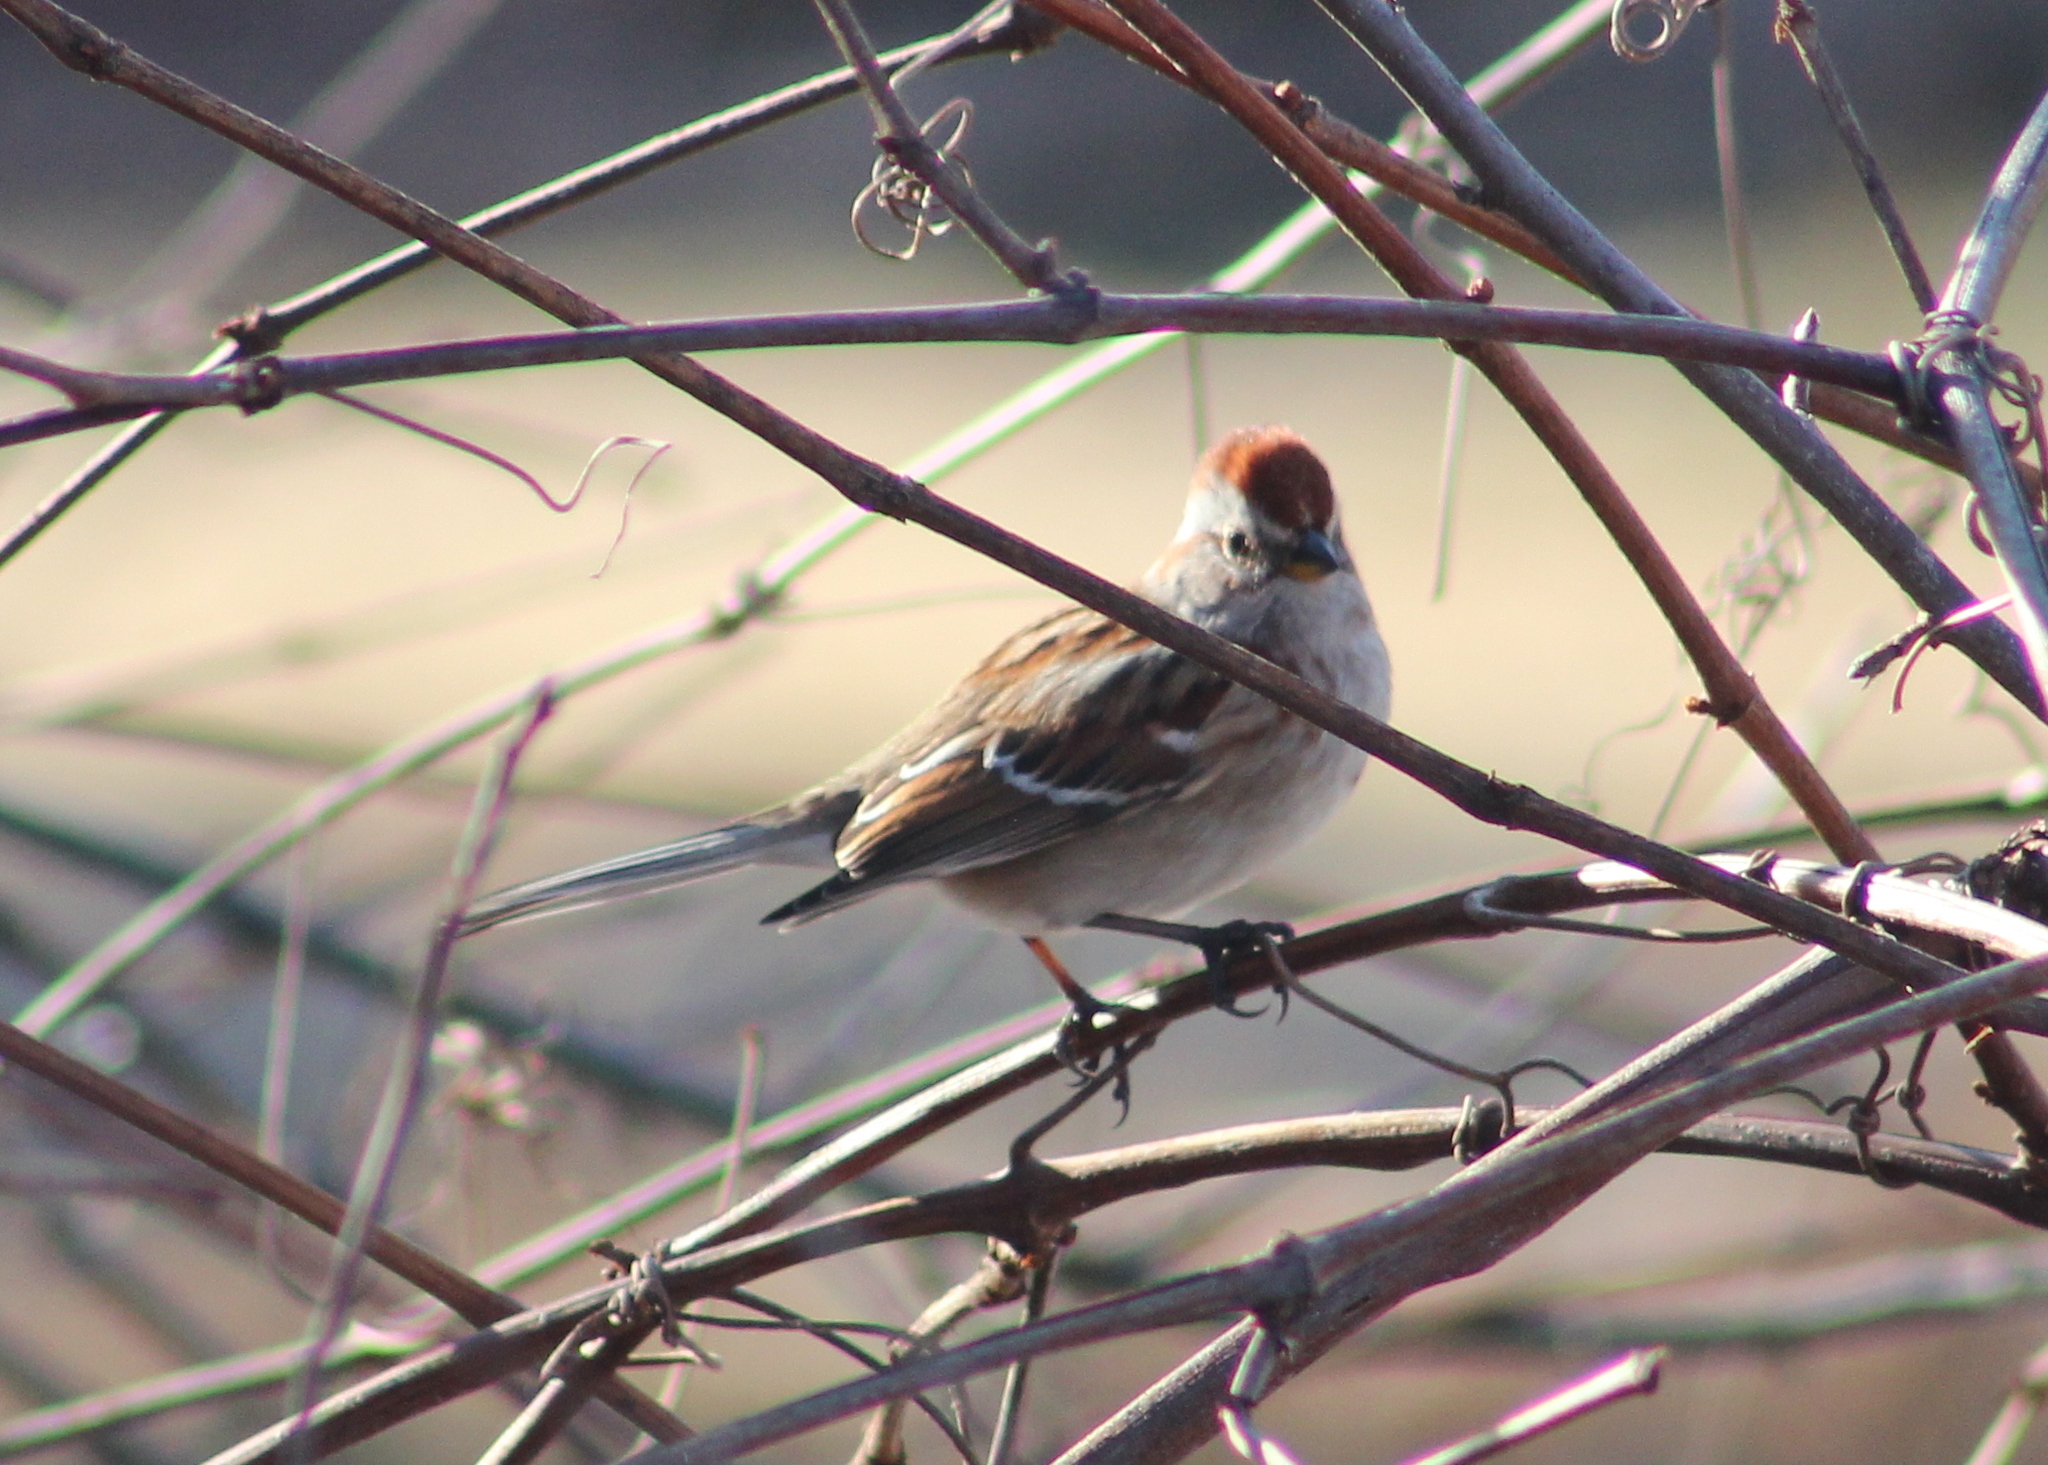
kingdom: Animalia
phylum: Chordata
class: Aves
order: Passeriformes
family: Passerellidae
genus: Spizelloides
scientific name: Spizelloides arborea
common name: American tree sparrow
